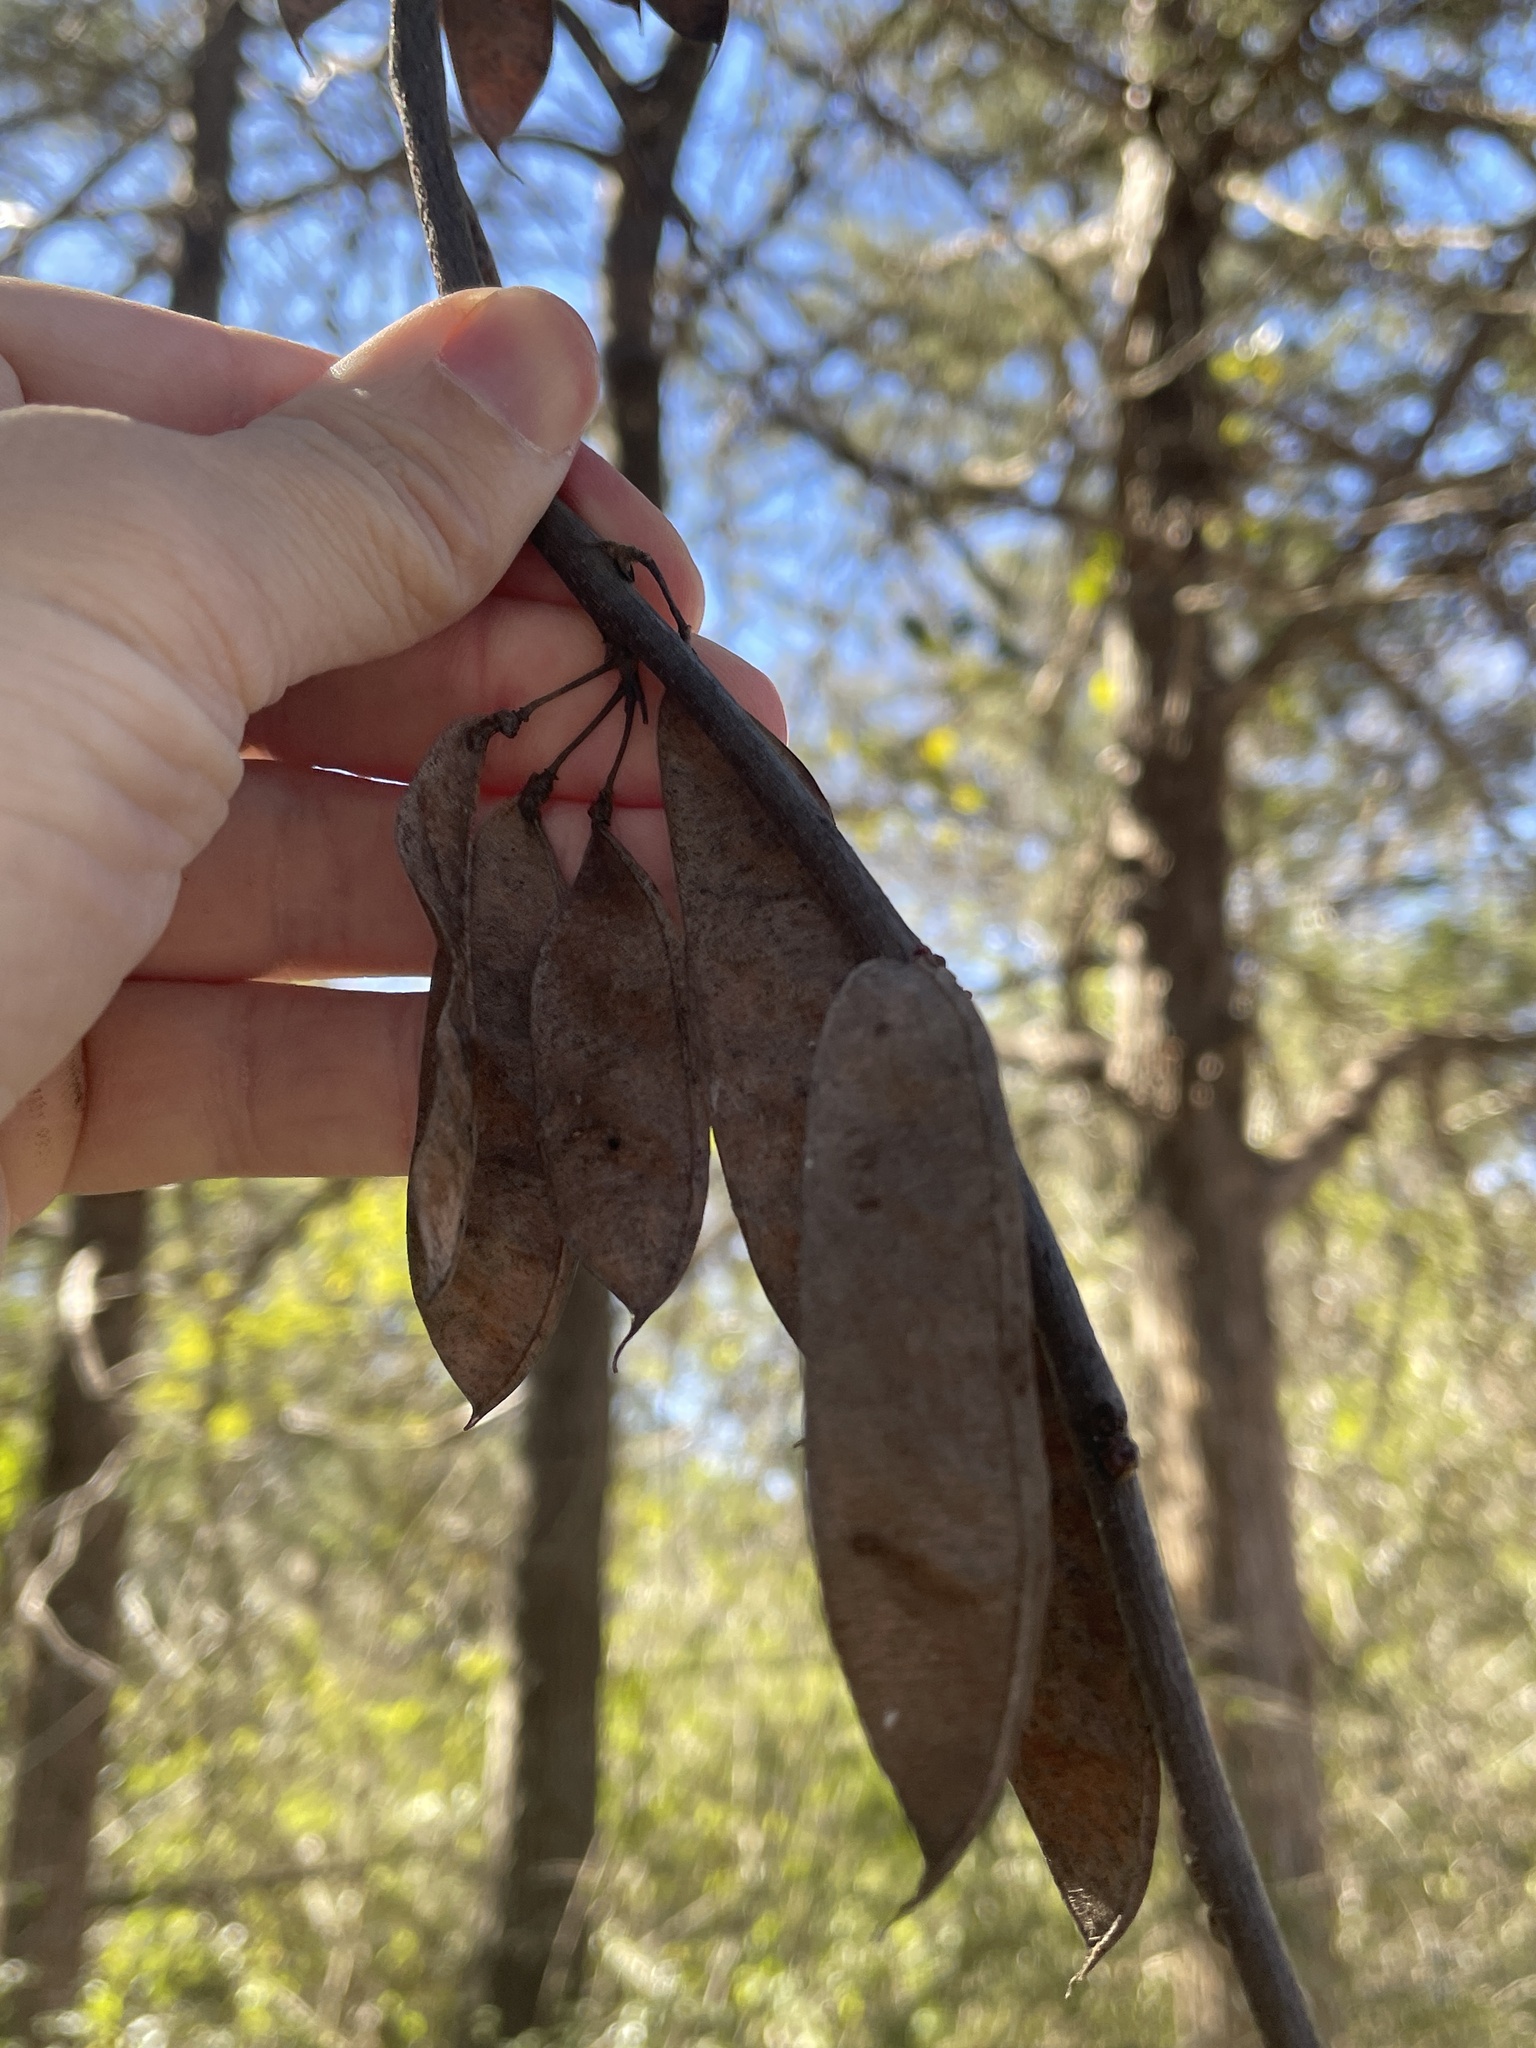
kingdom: Plantae
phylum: Tracheophyta
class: Magnoliopsida
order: Fabales
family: Fabaceae
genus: Cercis
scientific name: Cercis canadensis
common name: Eastern redbud
